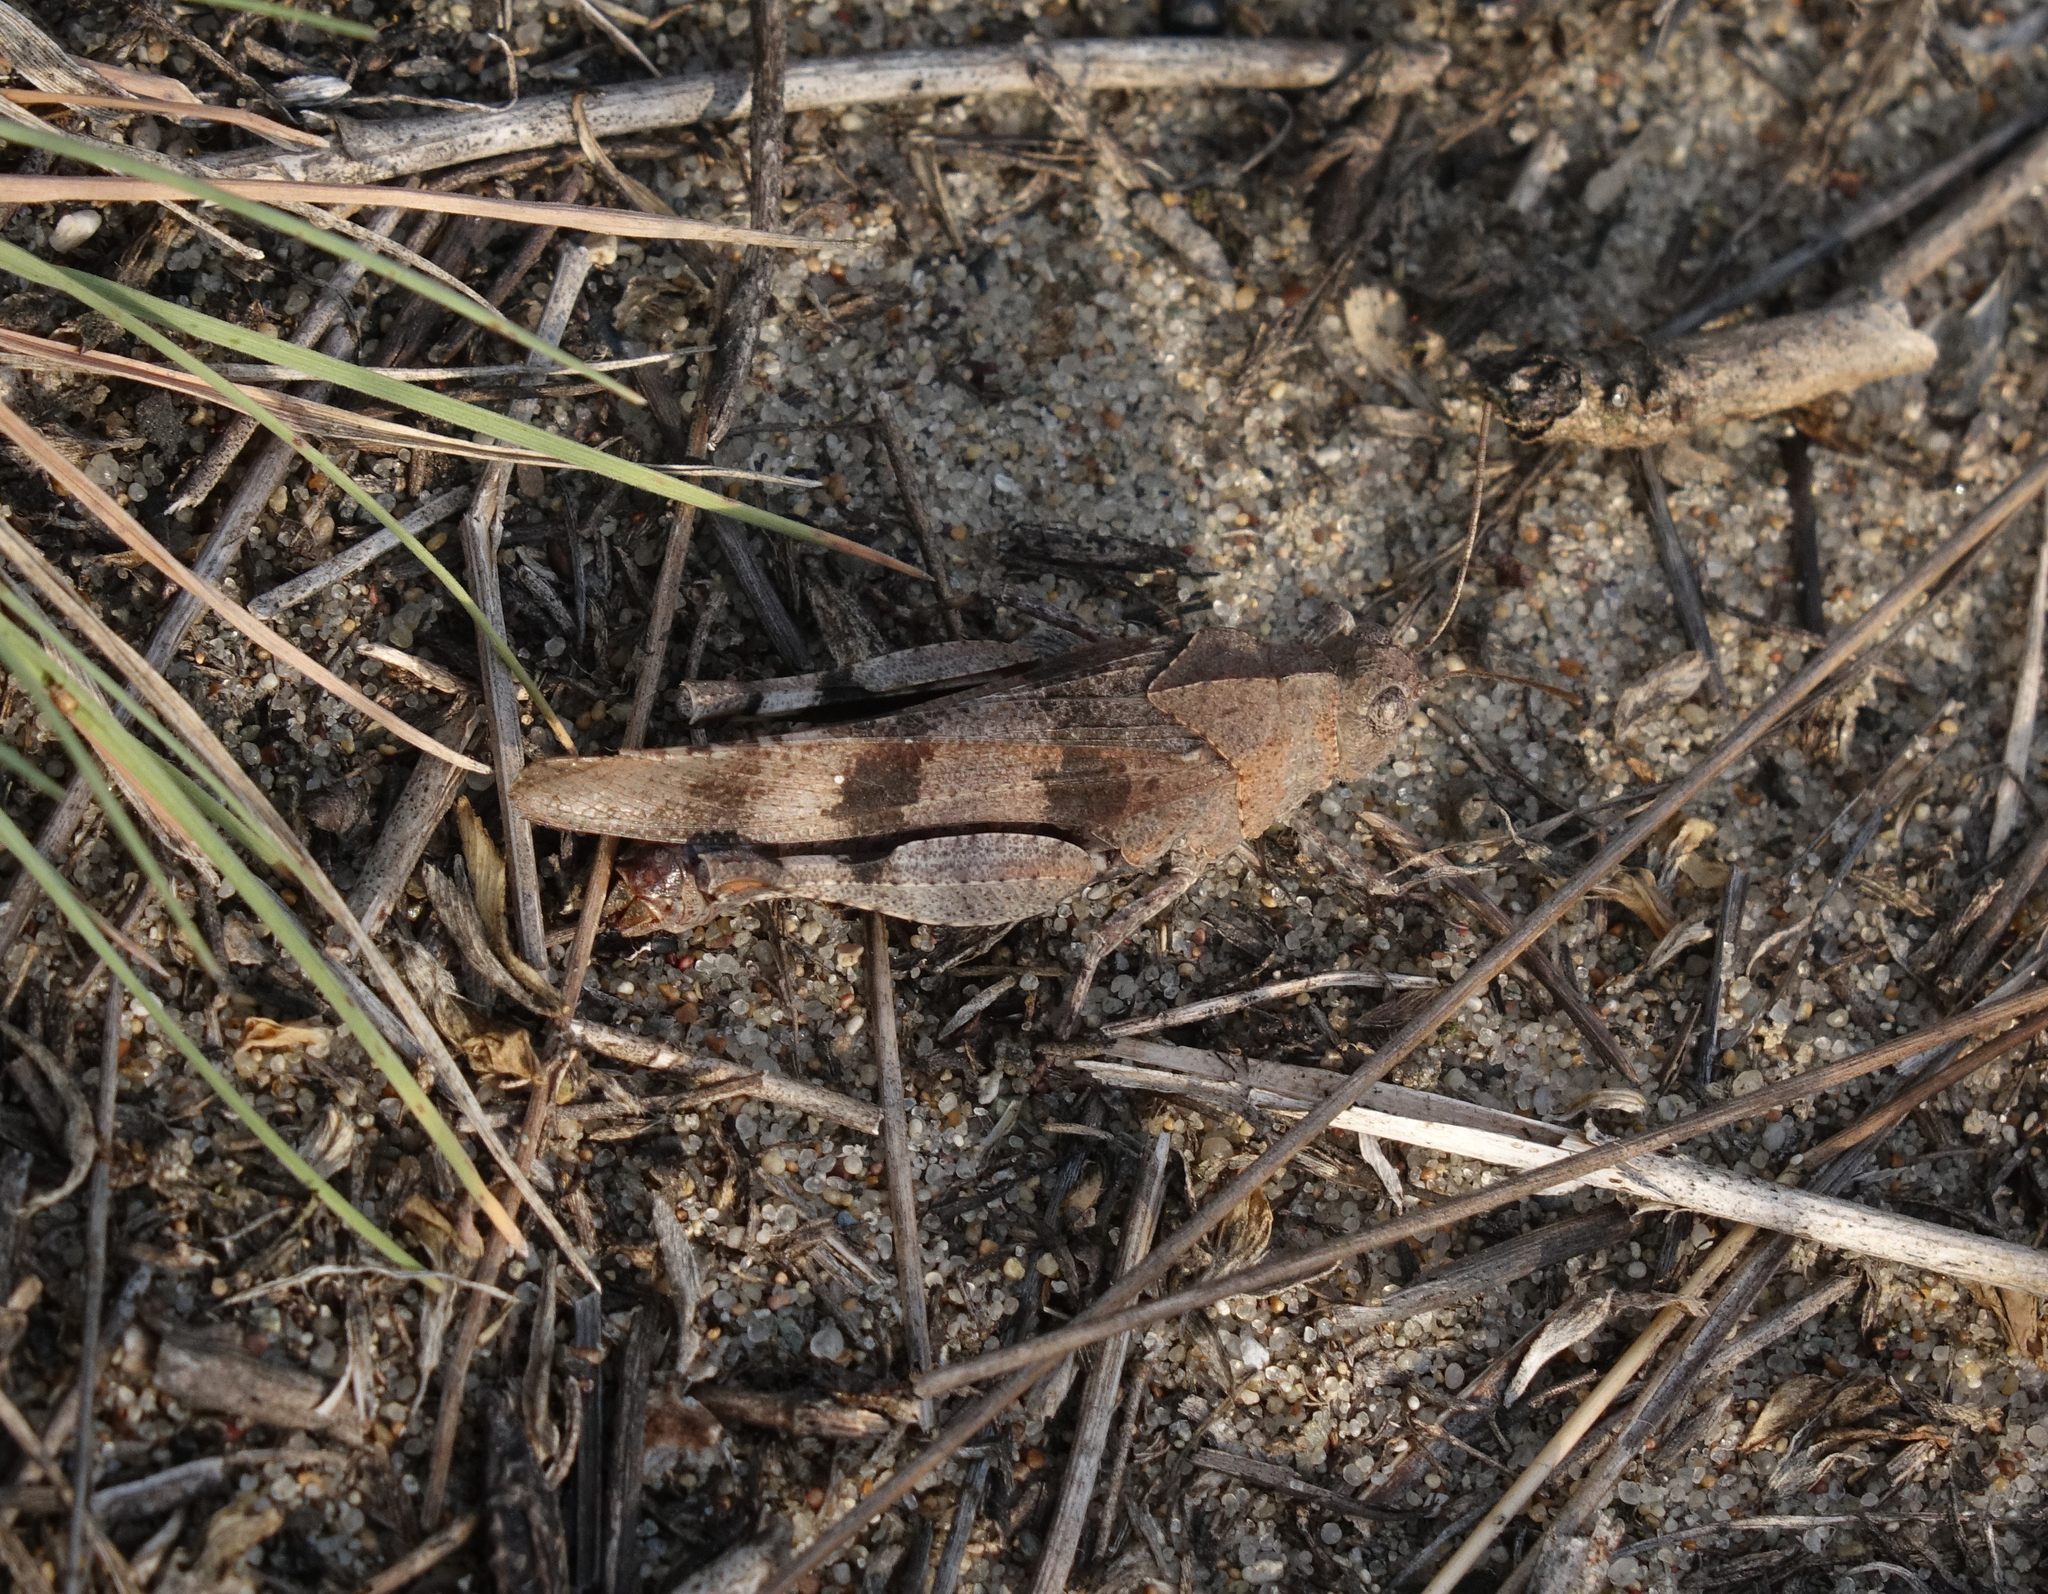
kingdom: Animalia
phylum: Arthropoda
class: Insecta
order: Orthoptera
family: Acrididae
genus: Oedipoda
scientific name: Oedipoda caerulescens
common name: Blue-winged grasshopper
